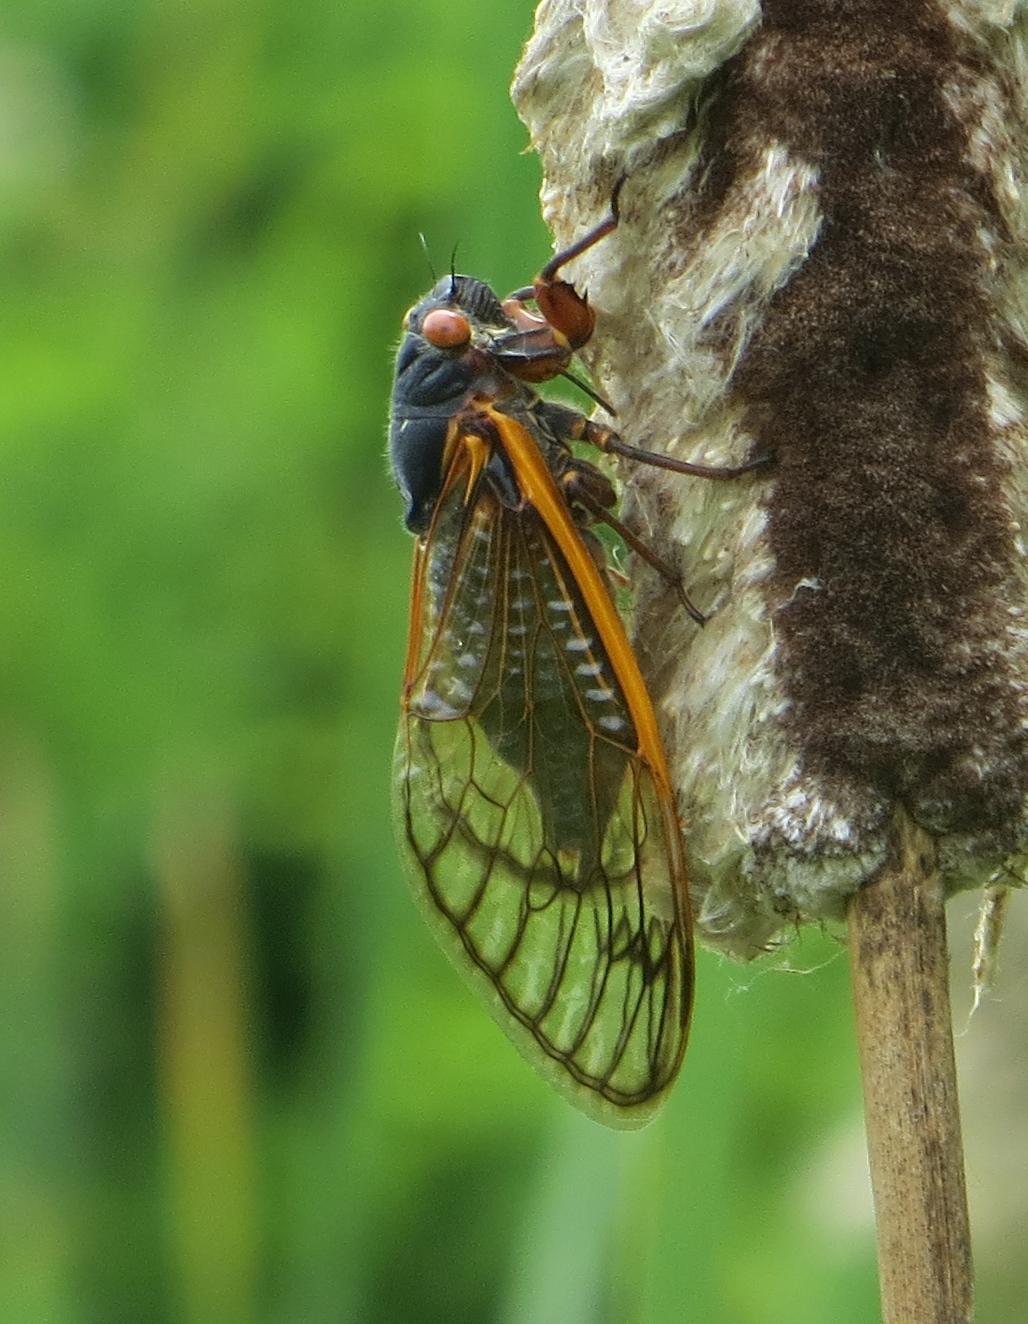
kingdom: Animalia
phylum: Arthropoda
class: Insecta
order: Hemiptera
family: Cicadidae
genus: Magicicada
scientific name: Magicicada septendecim
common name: Periodical cicada
